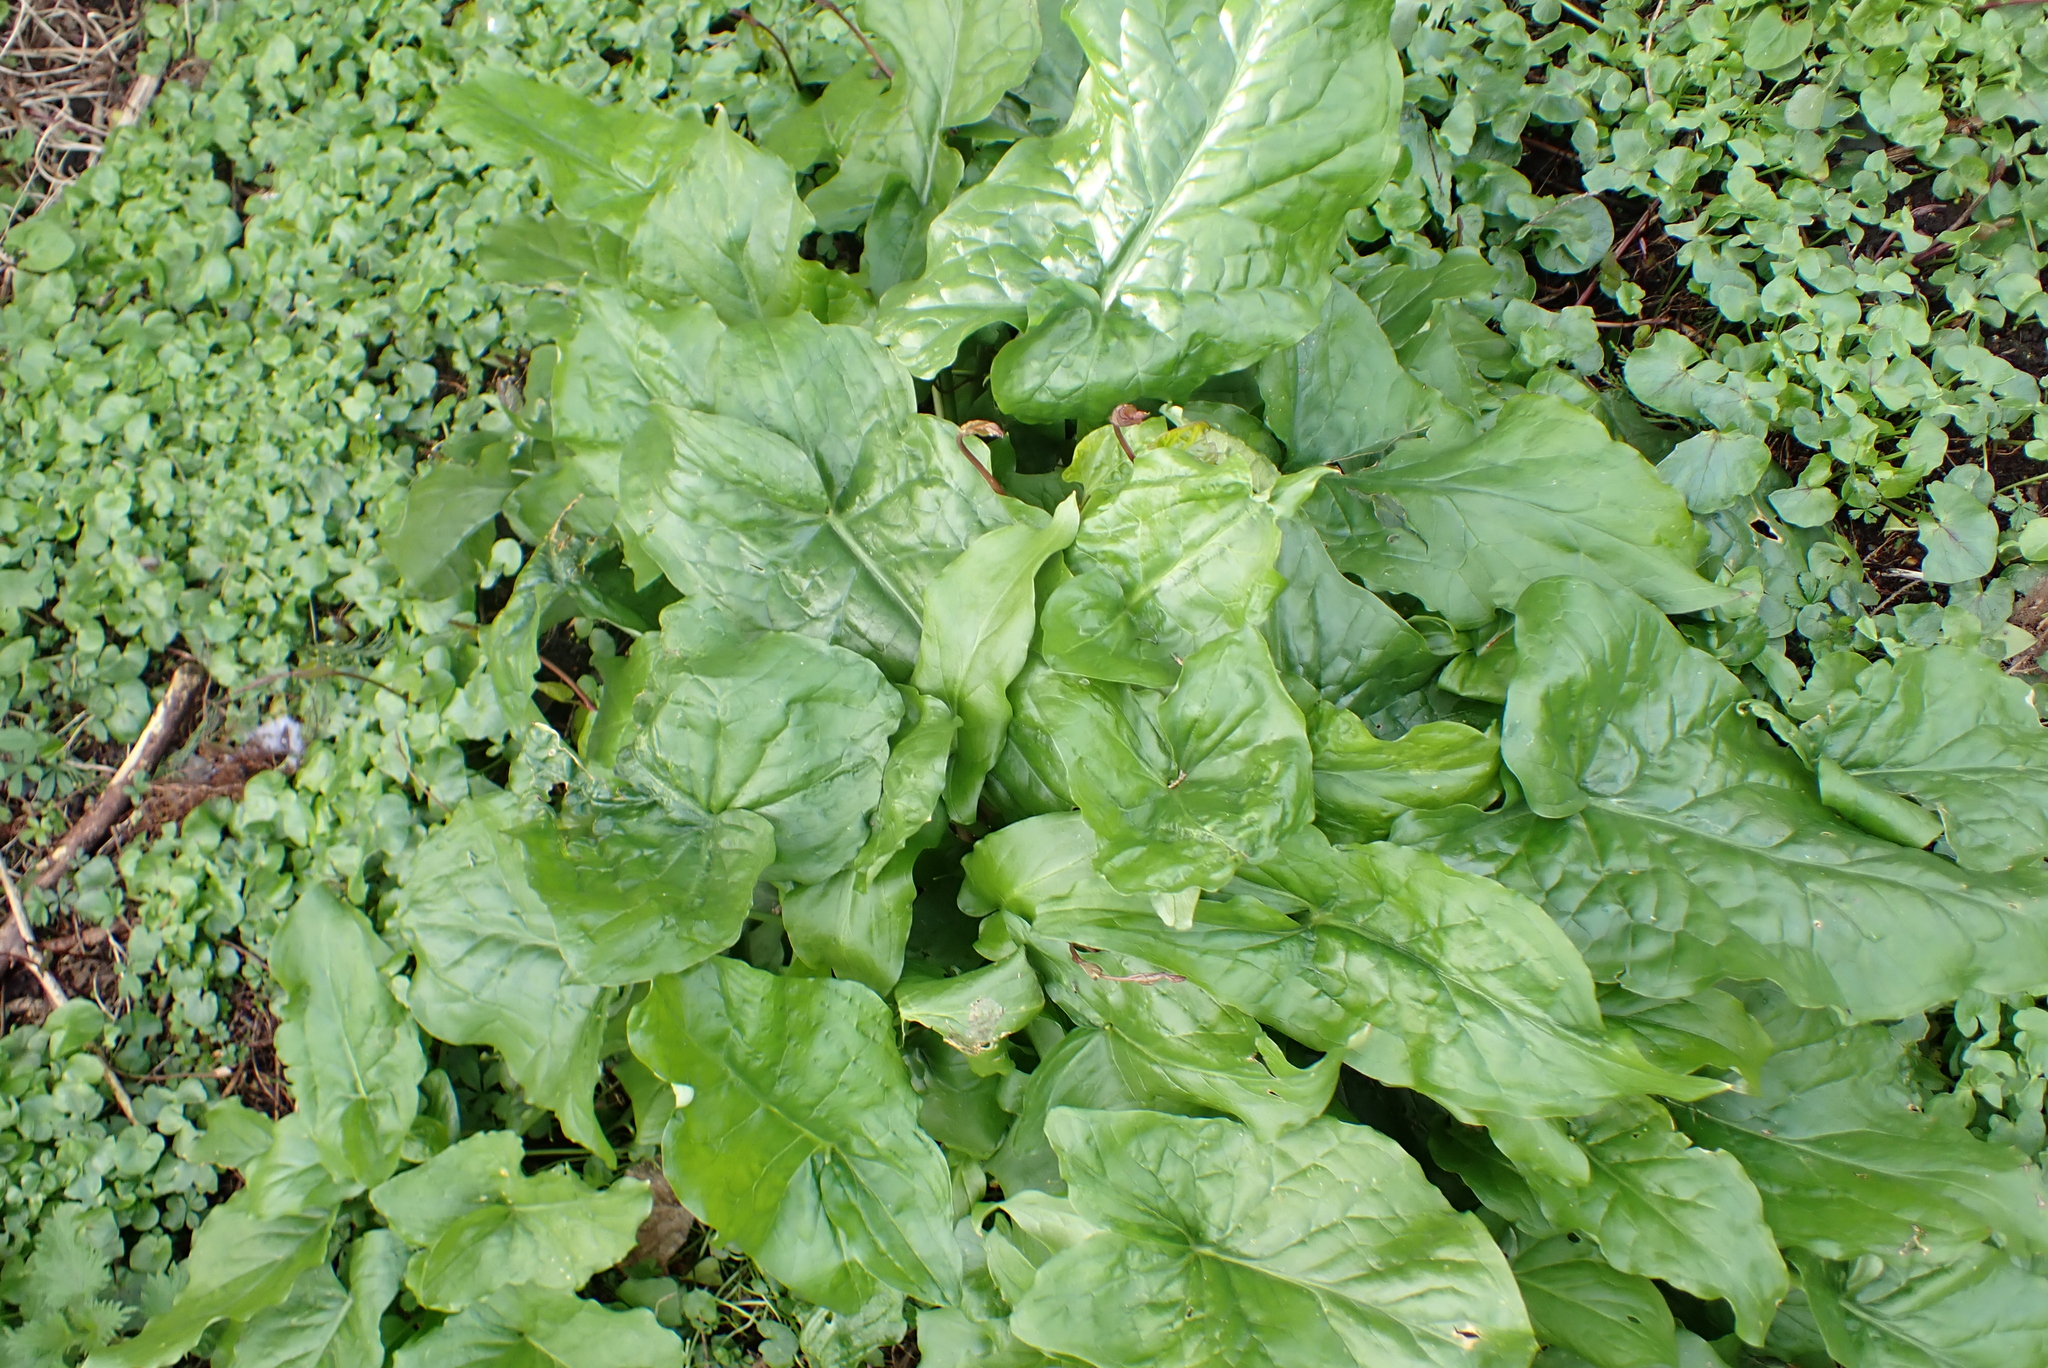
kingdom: Plantae
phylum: Tracheophyta
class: Liliopsida
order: Alismatales
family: Araceae
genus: Arum
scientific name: Arum maculatum
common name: Lords-and-ladies
